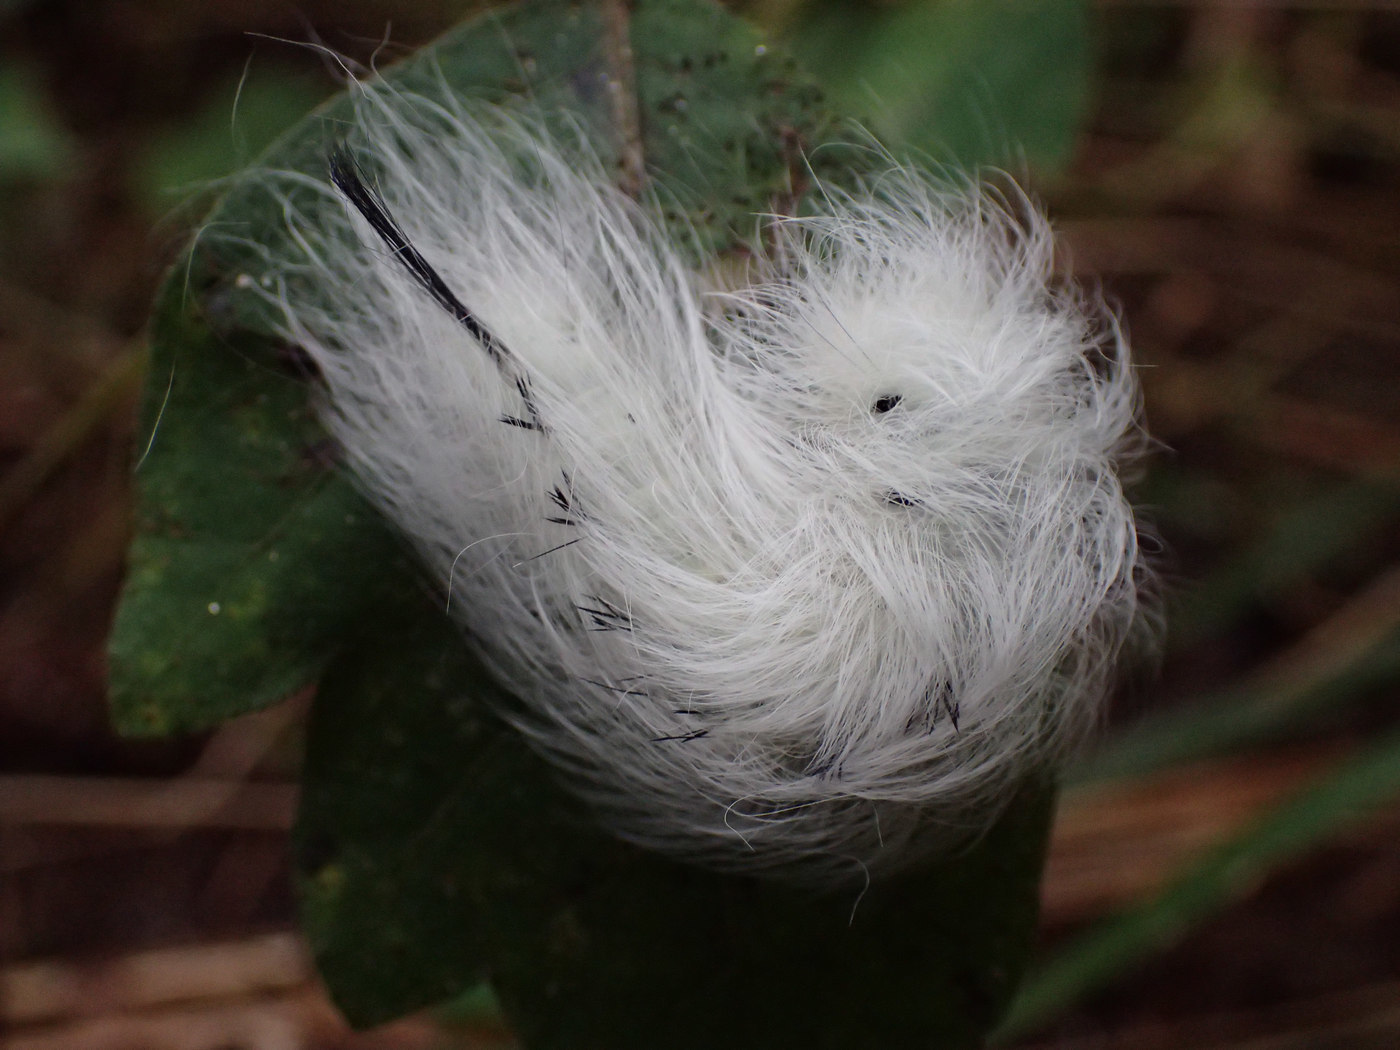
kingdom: Animalia
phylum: Arthropoda
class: Insecta
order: Lepidoptera
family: Apatelodidae
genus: Hygrochroa
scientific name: Hygrochroa Apatelodes torrefacta
